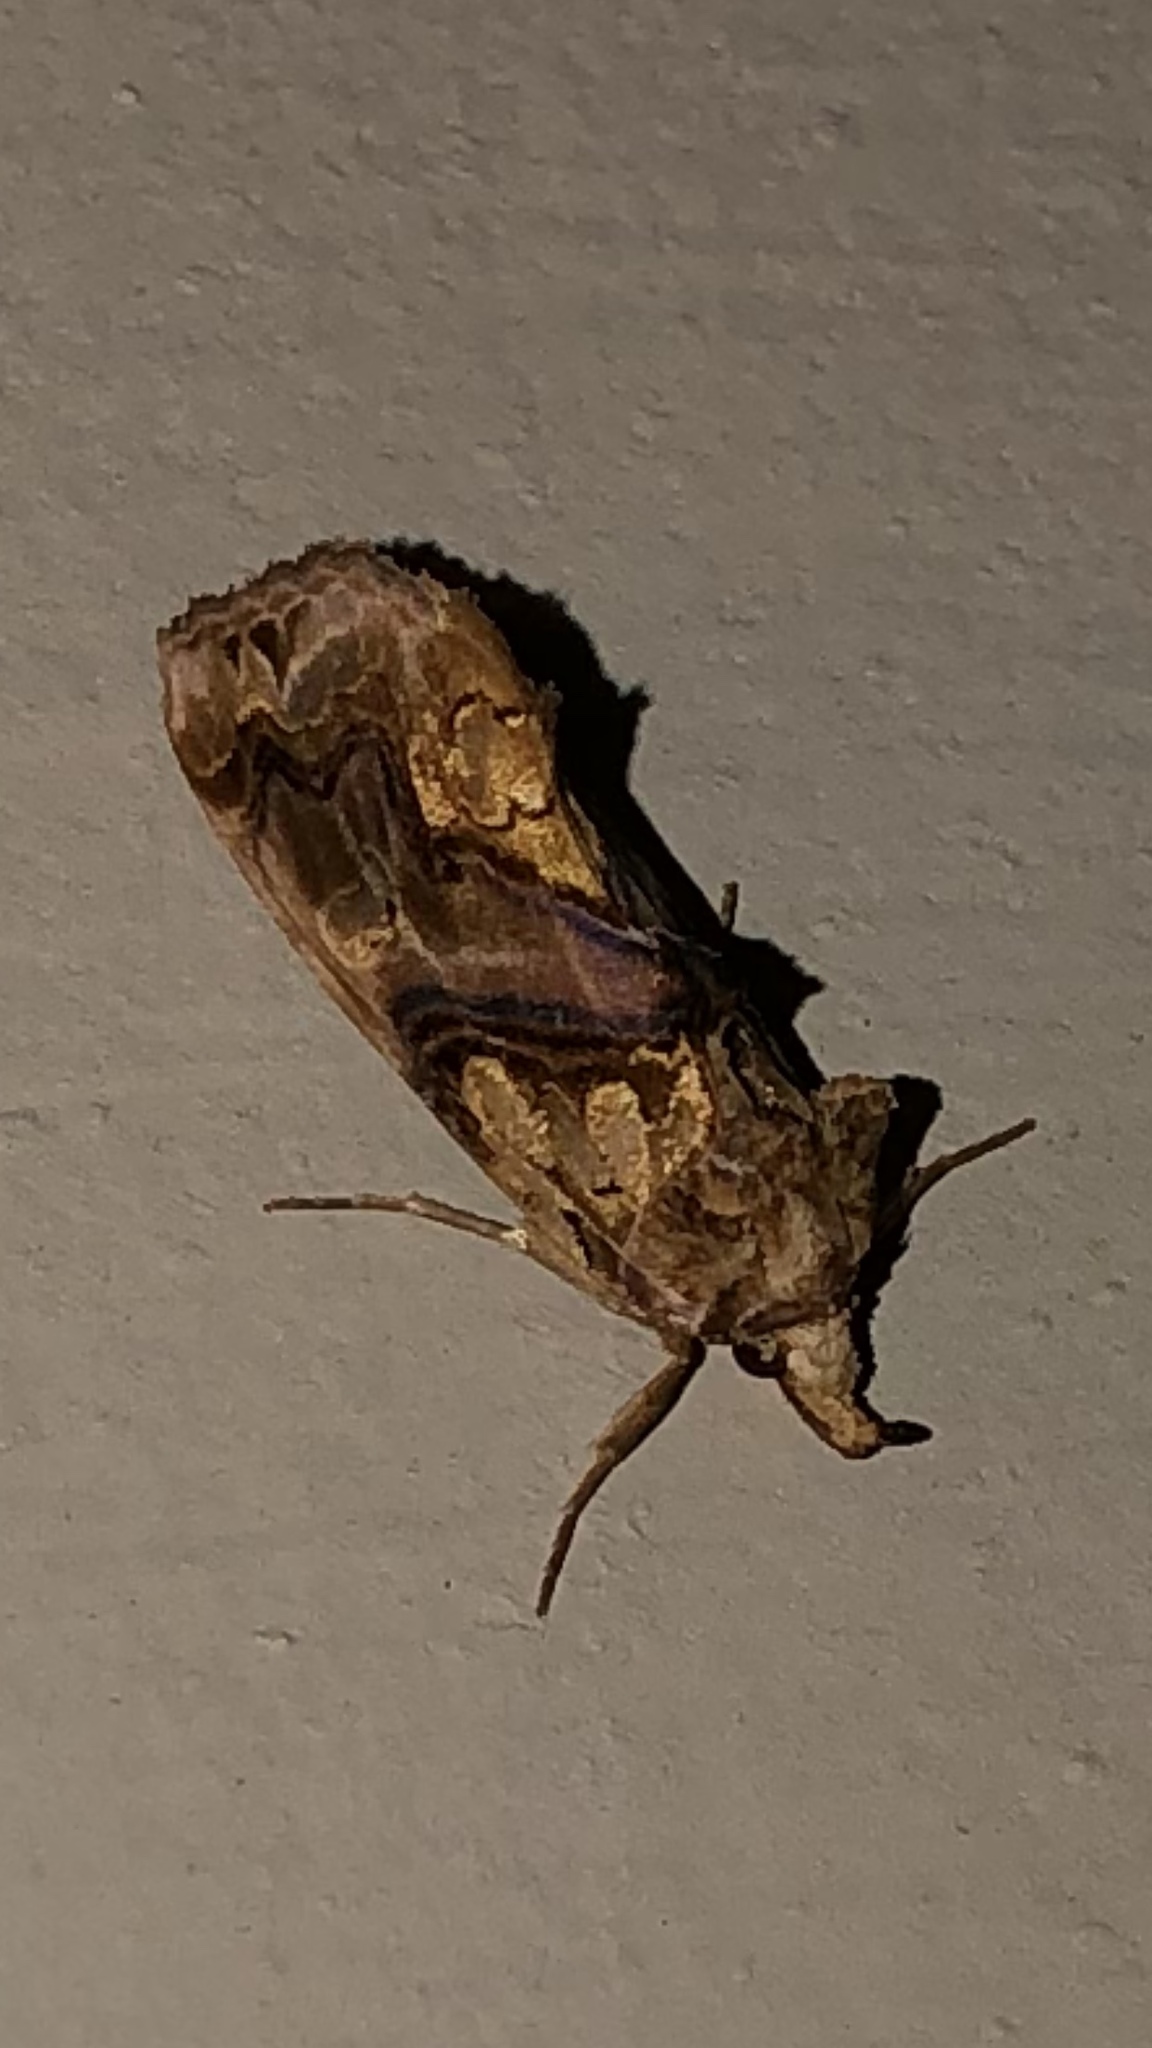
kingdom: Animalia
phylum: Arthropoda
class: Insecta
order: Lepidoptera
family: Erebidae
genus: Plusiodonta
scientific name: Plusiodonta compressipalpis
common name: Moonseed moth
